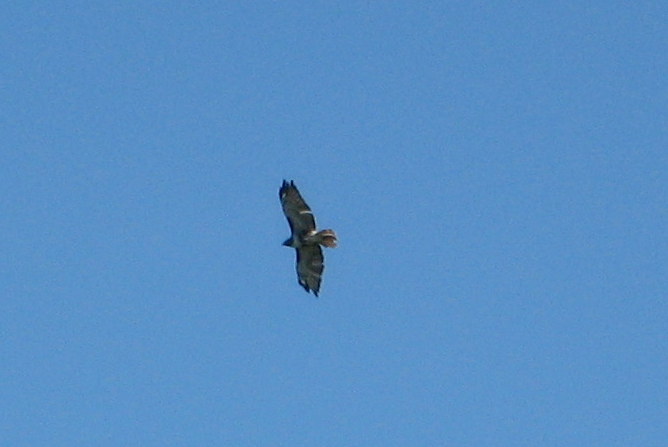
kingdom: Animalia
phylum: Chordata
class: Aves
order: Accipitriformes
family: Accipitridae
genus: Buteo
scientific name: Buteo jamaicensis
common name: Red-tailed hawk
